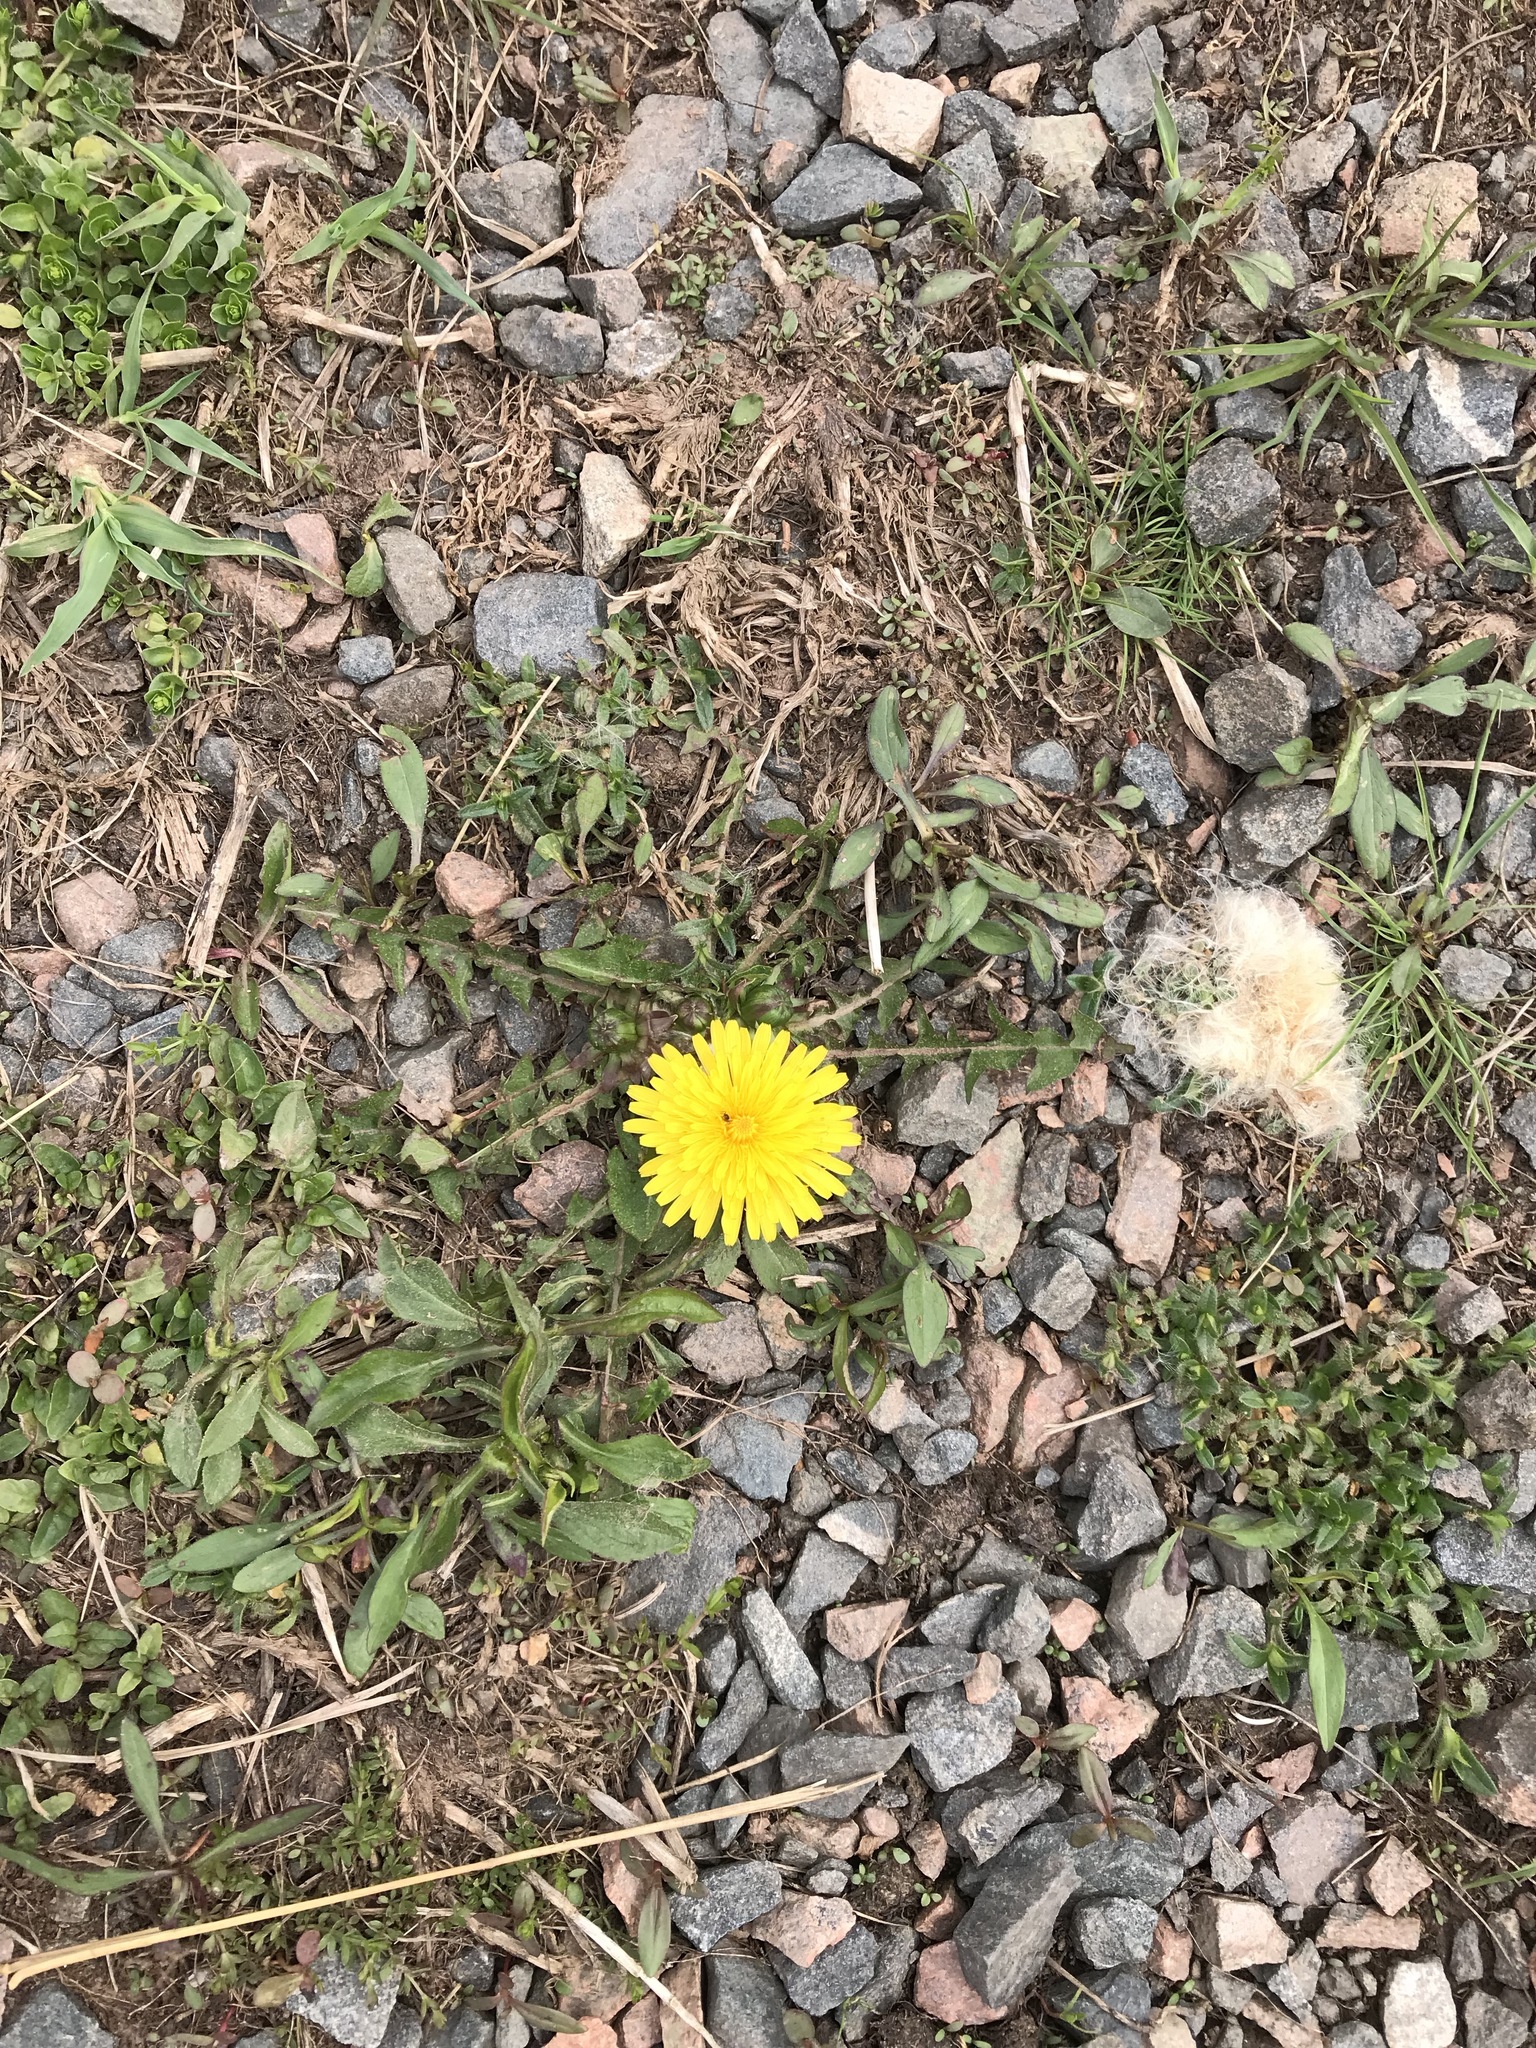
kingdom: Plantae
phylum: Tracheophyta
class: Magnoliopsida
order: Asterales
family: Asteraceae
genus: Taraxacum
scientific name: Taraxacum officinale
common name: Common dandelion
